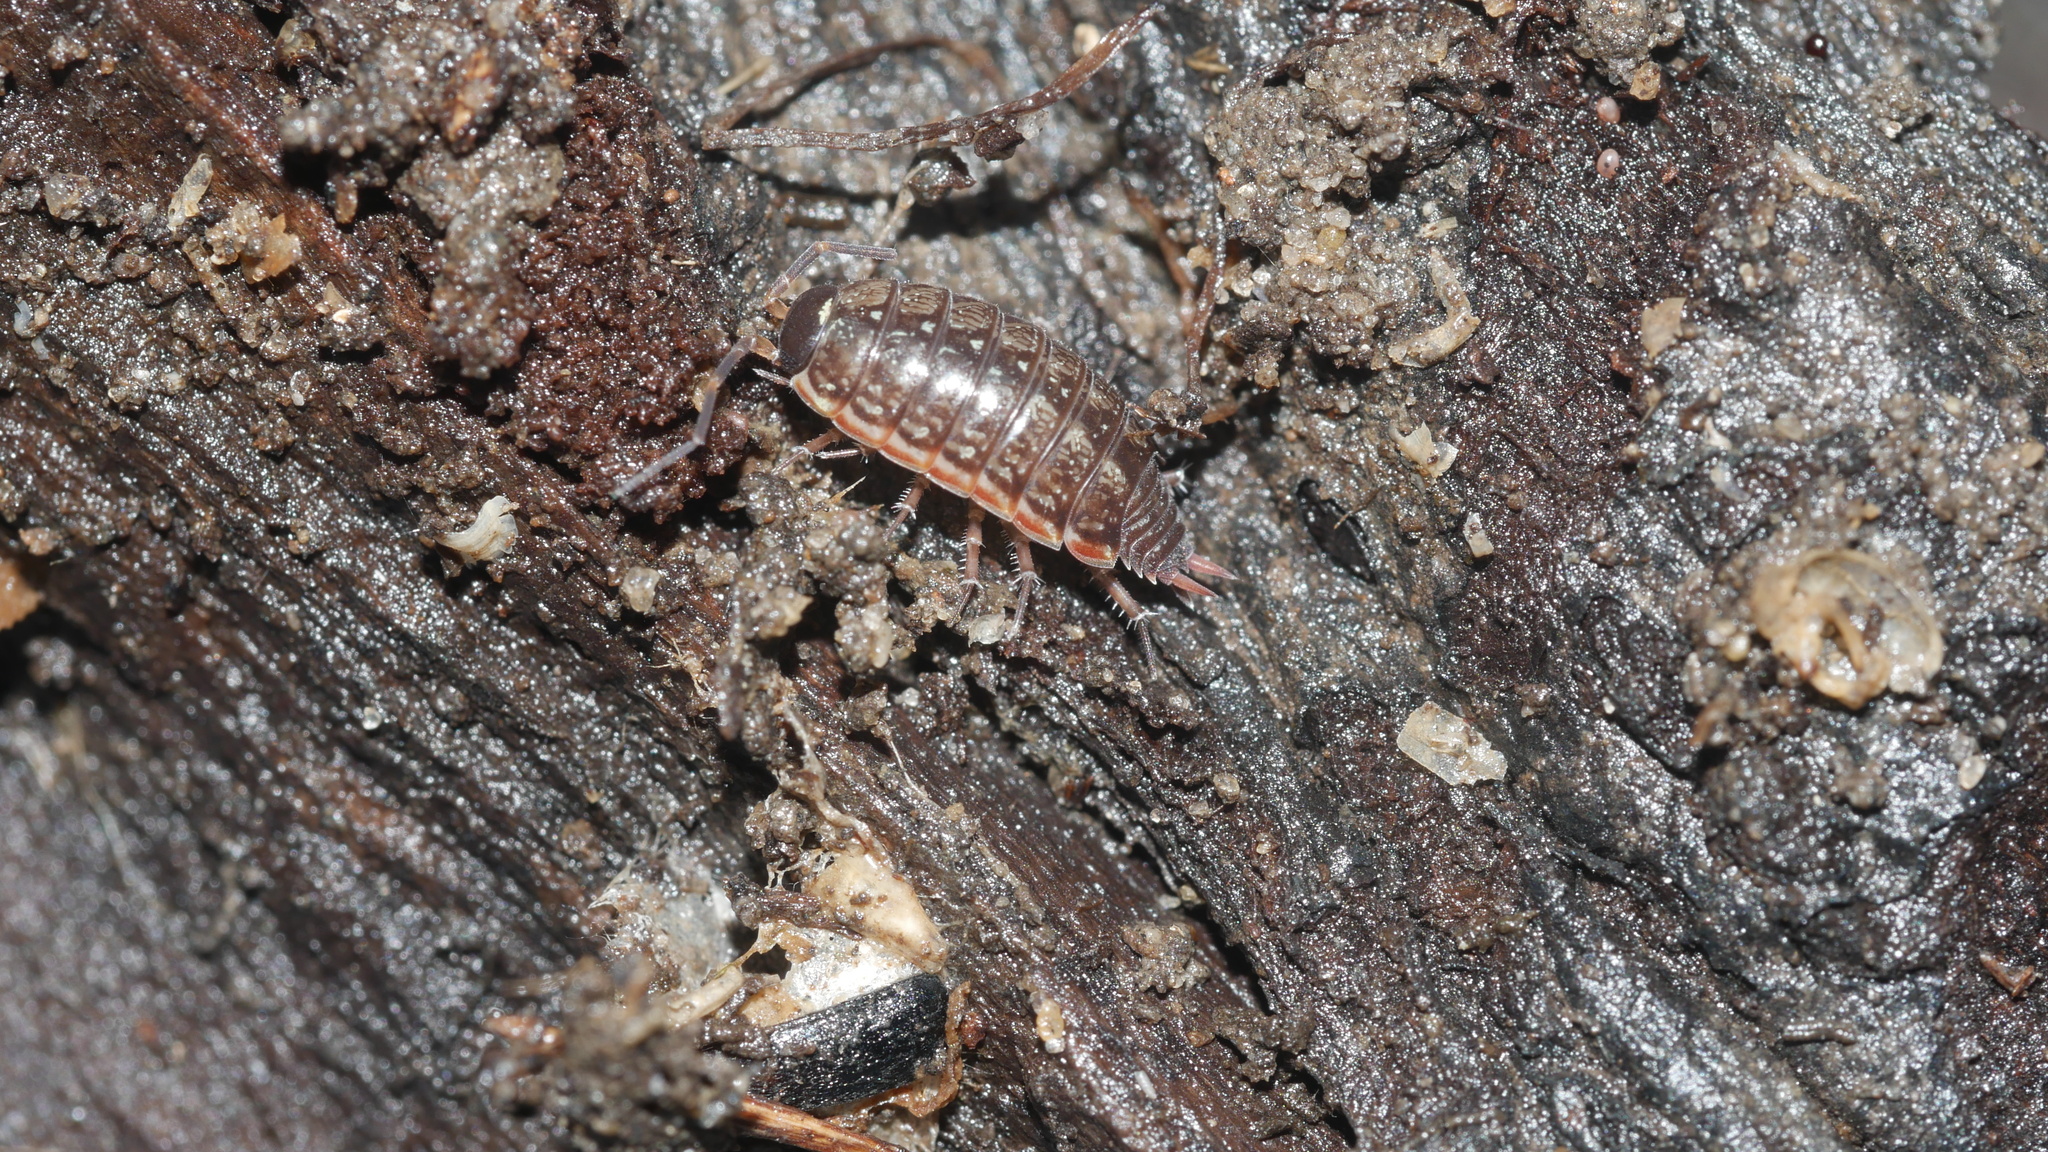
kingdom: Animalia
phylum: Arthropoda
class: Malacostraca
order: Isopoda
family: Philosciidae
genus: Philoscia
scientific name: Philoscia muscorum
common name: Common striped woodlouse
